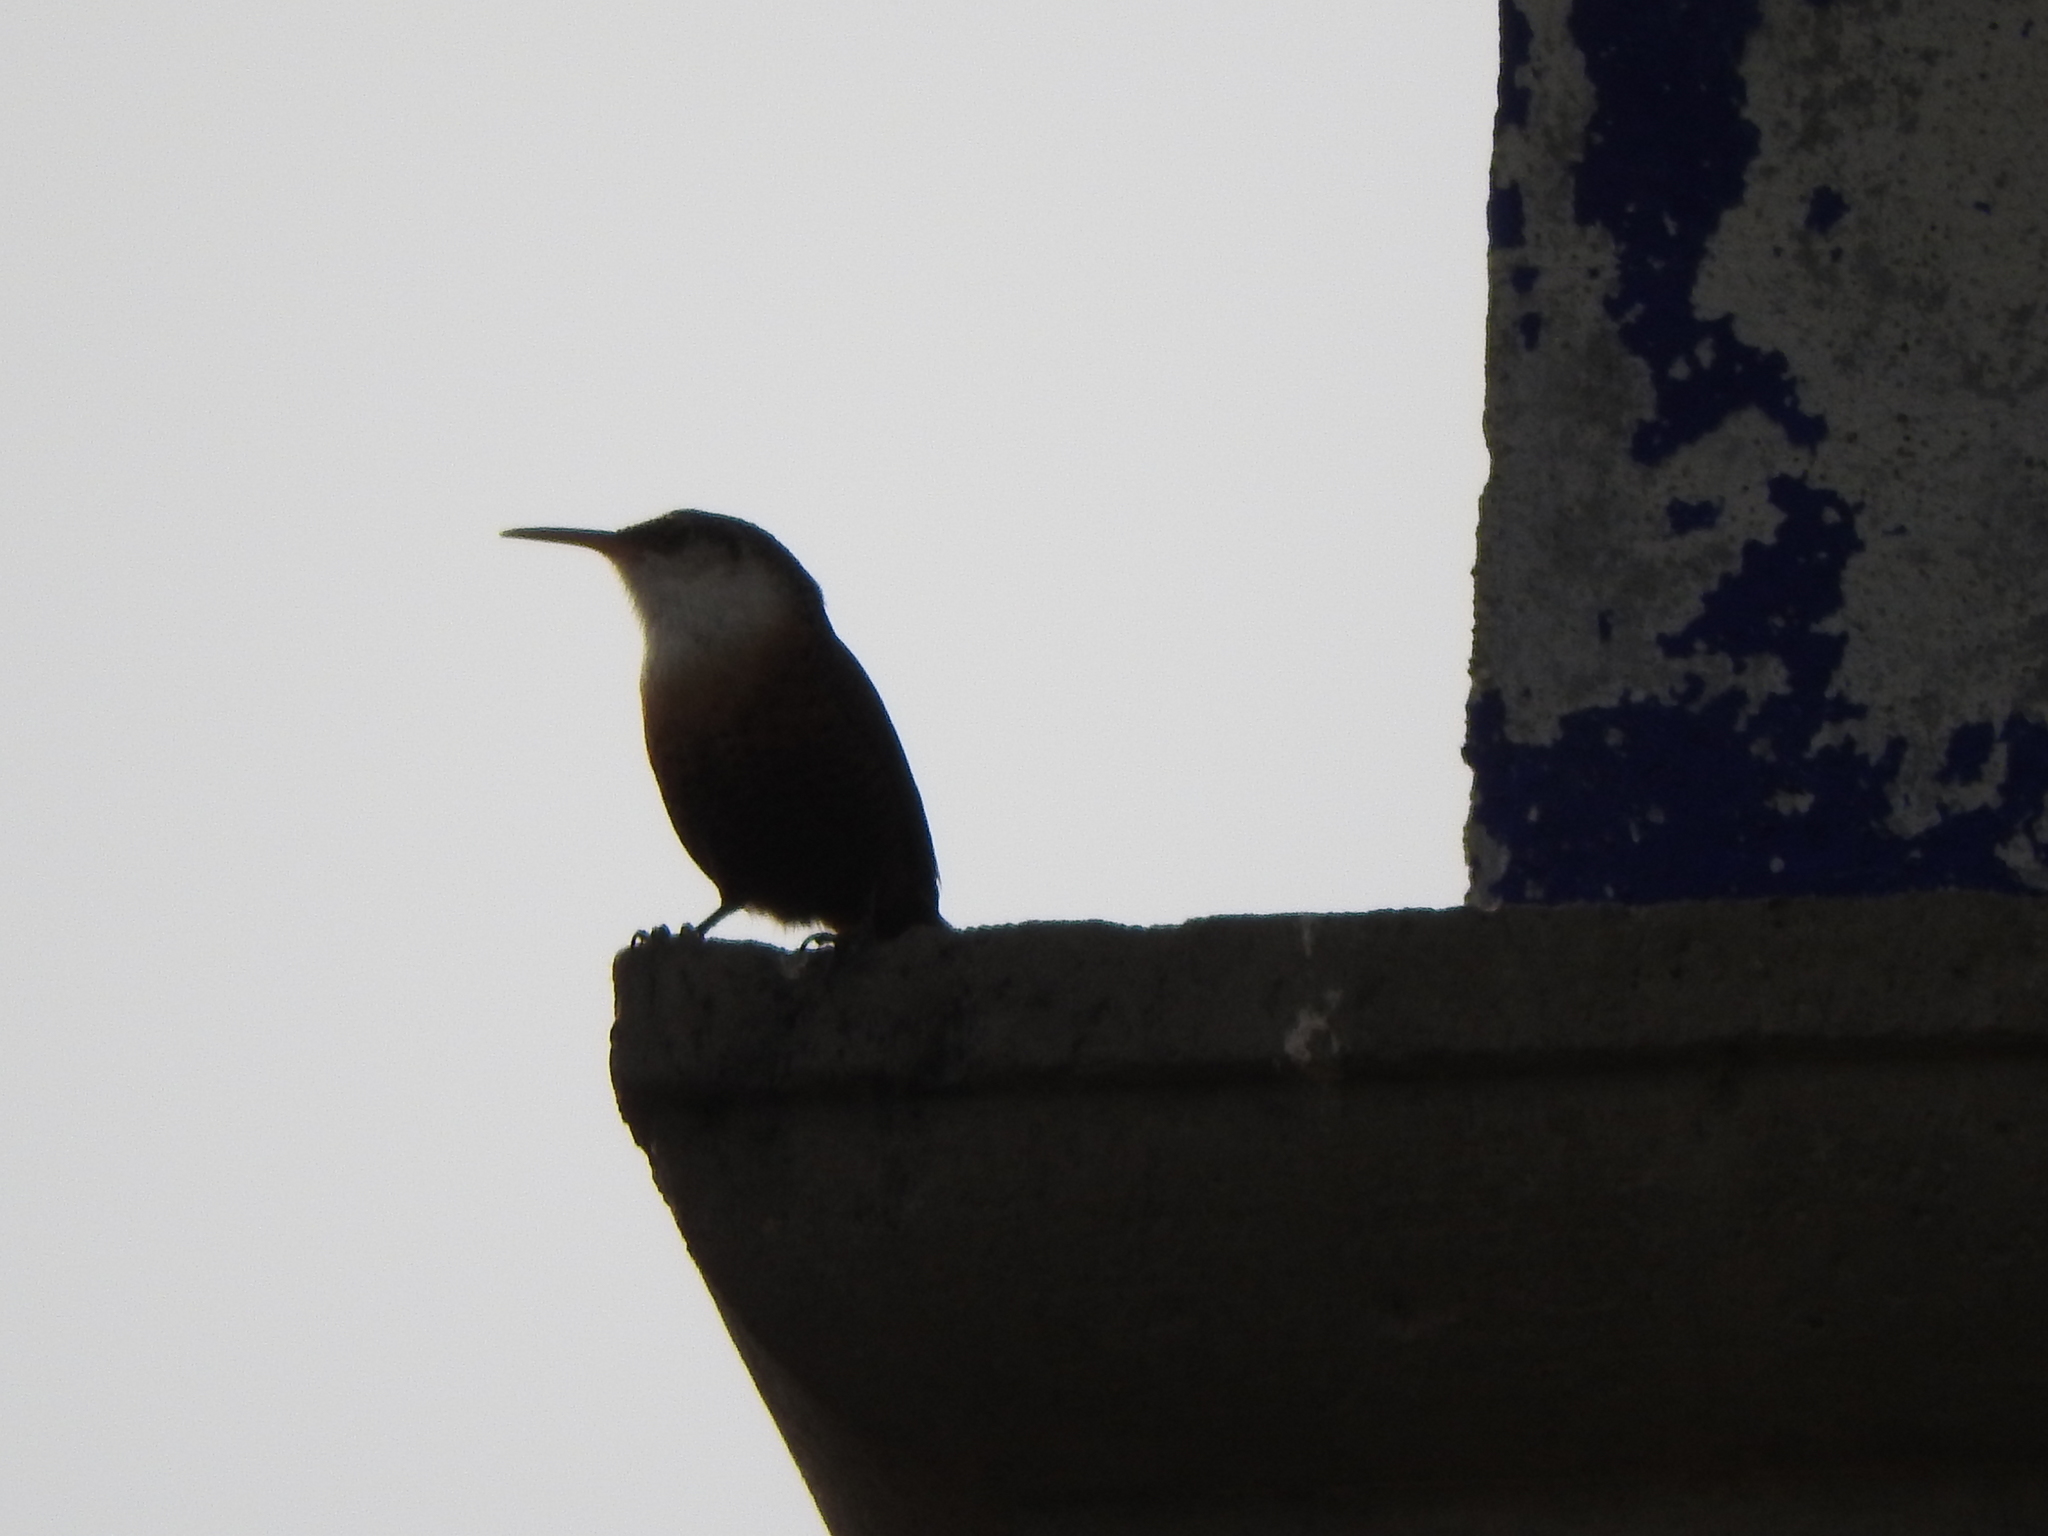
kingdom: Animalia
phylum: Chordata
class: Aves
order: Passeriformes
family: Troglodytidae
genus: Catherpes
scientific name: Catherpes mexicanus
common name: Canyon wren
